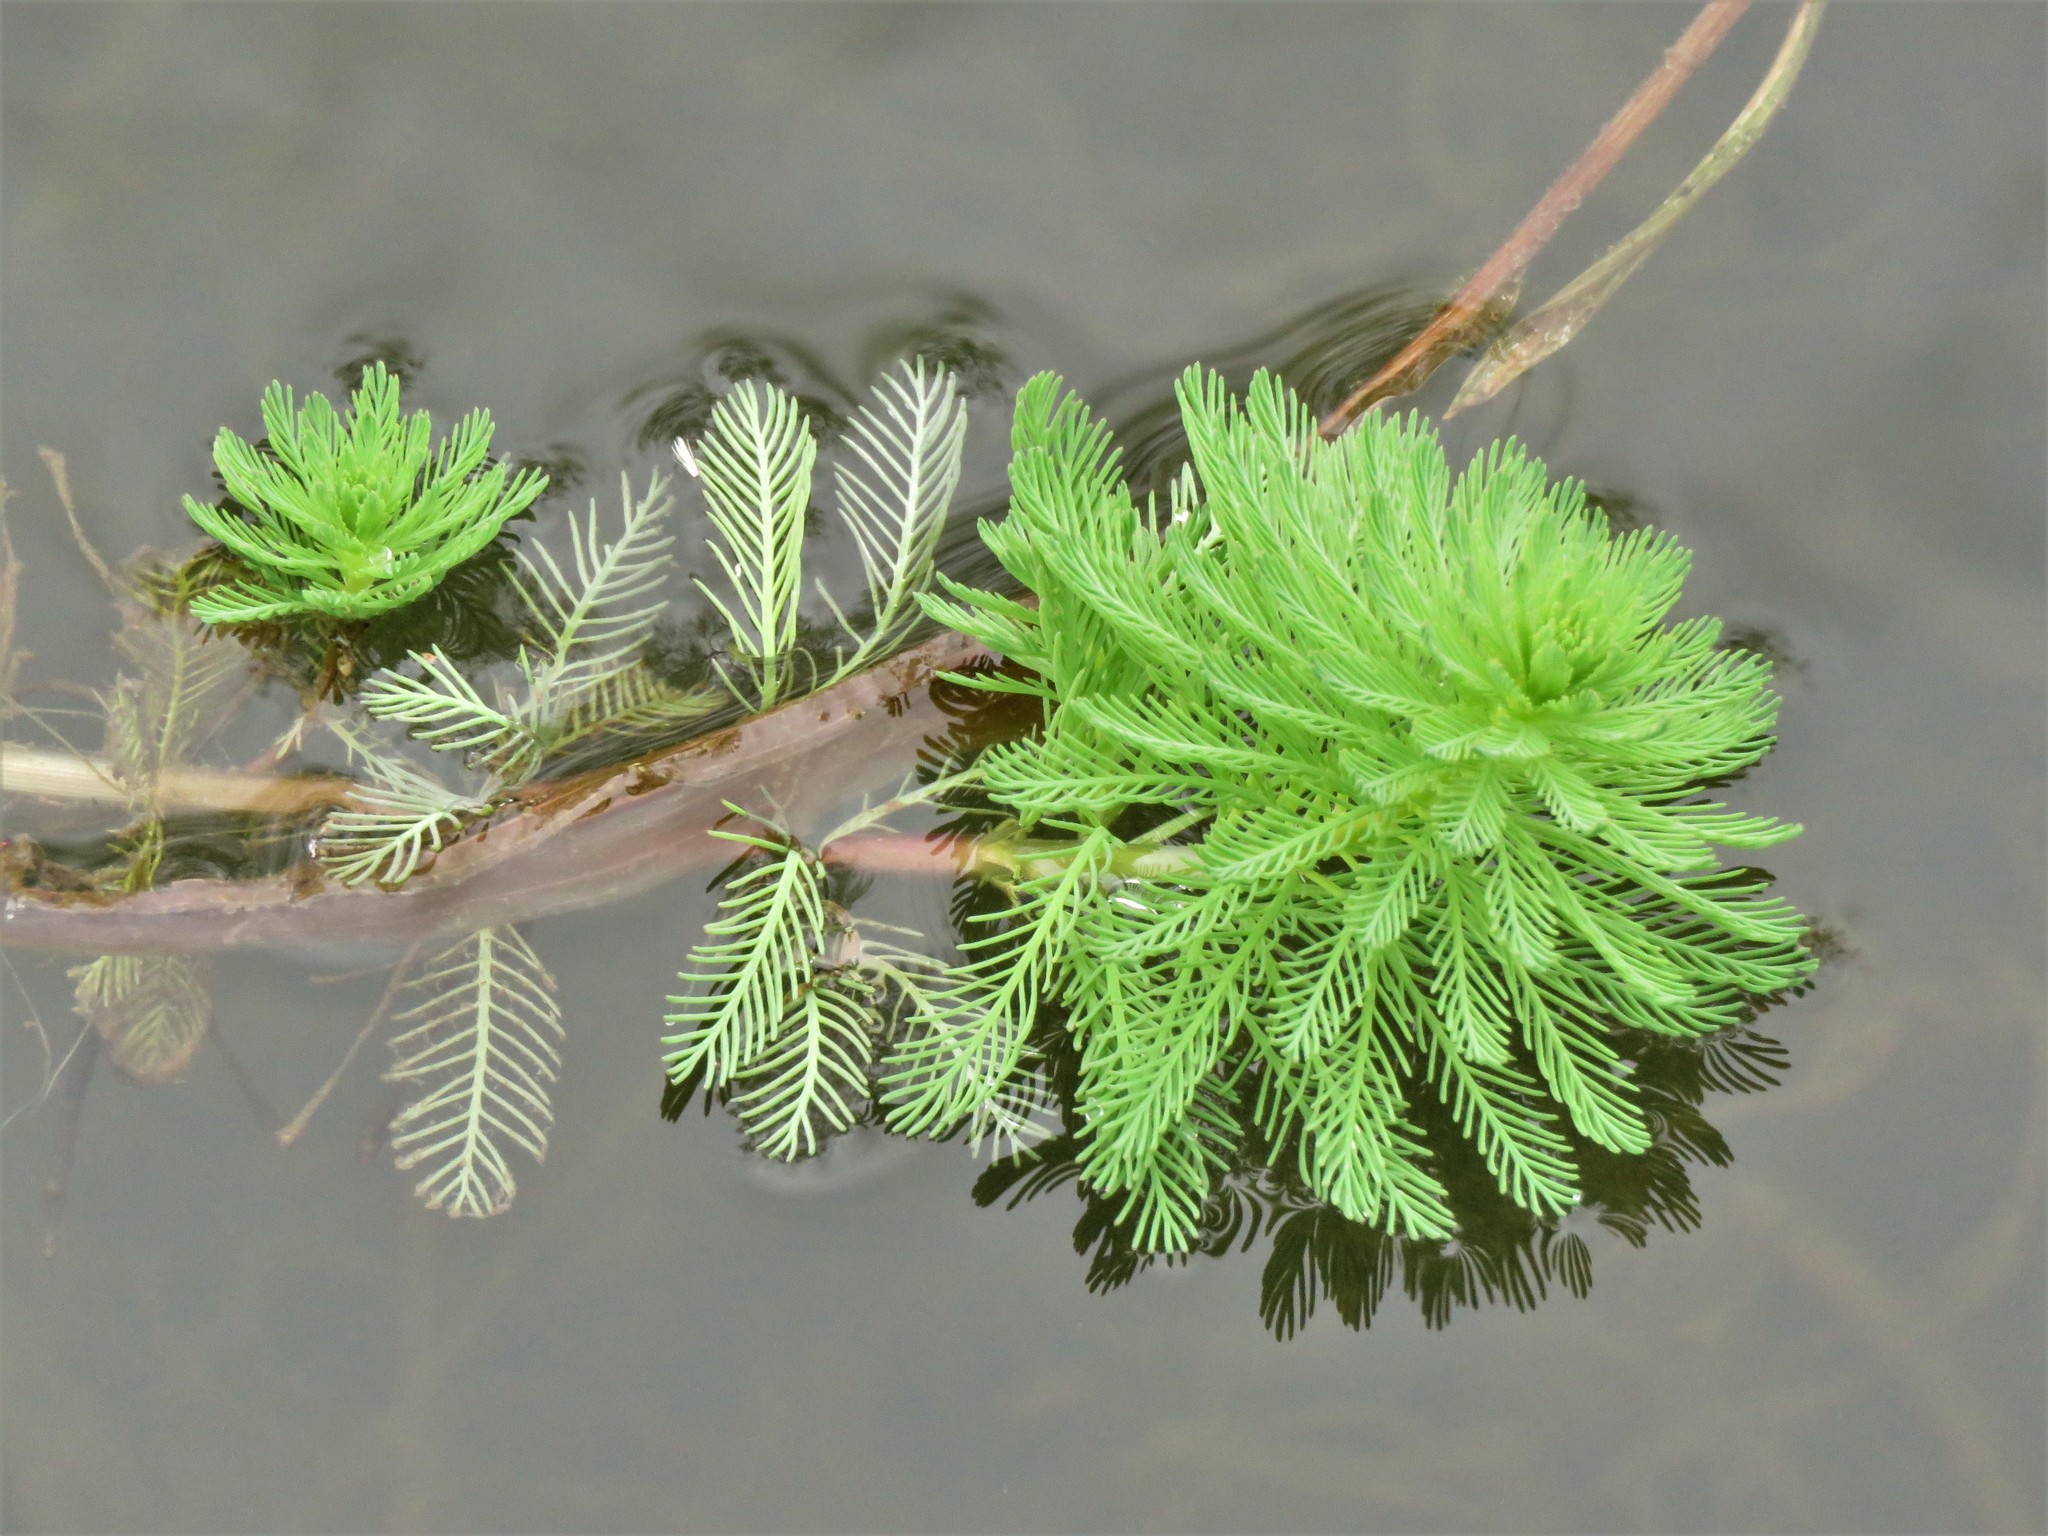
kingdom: Plantae
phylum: Tracheophyta
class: Magnoliopsida
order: Saxifragales
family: Haloragaceae
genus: Myriophyllum
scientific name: Myriophyllum aquaticum
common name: Parrot's feather
